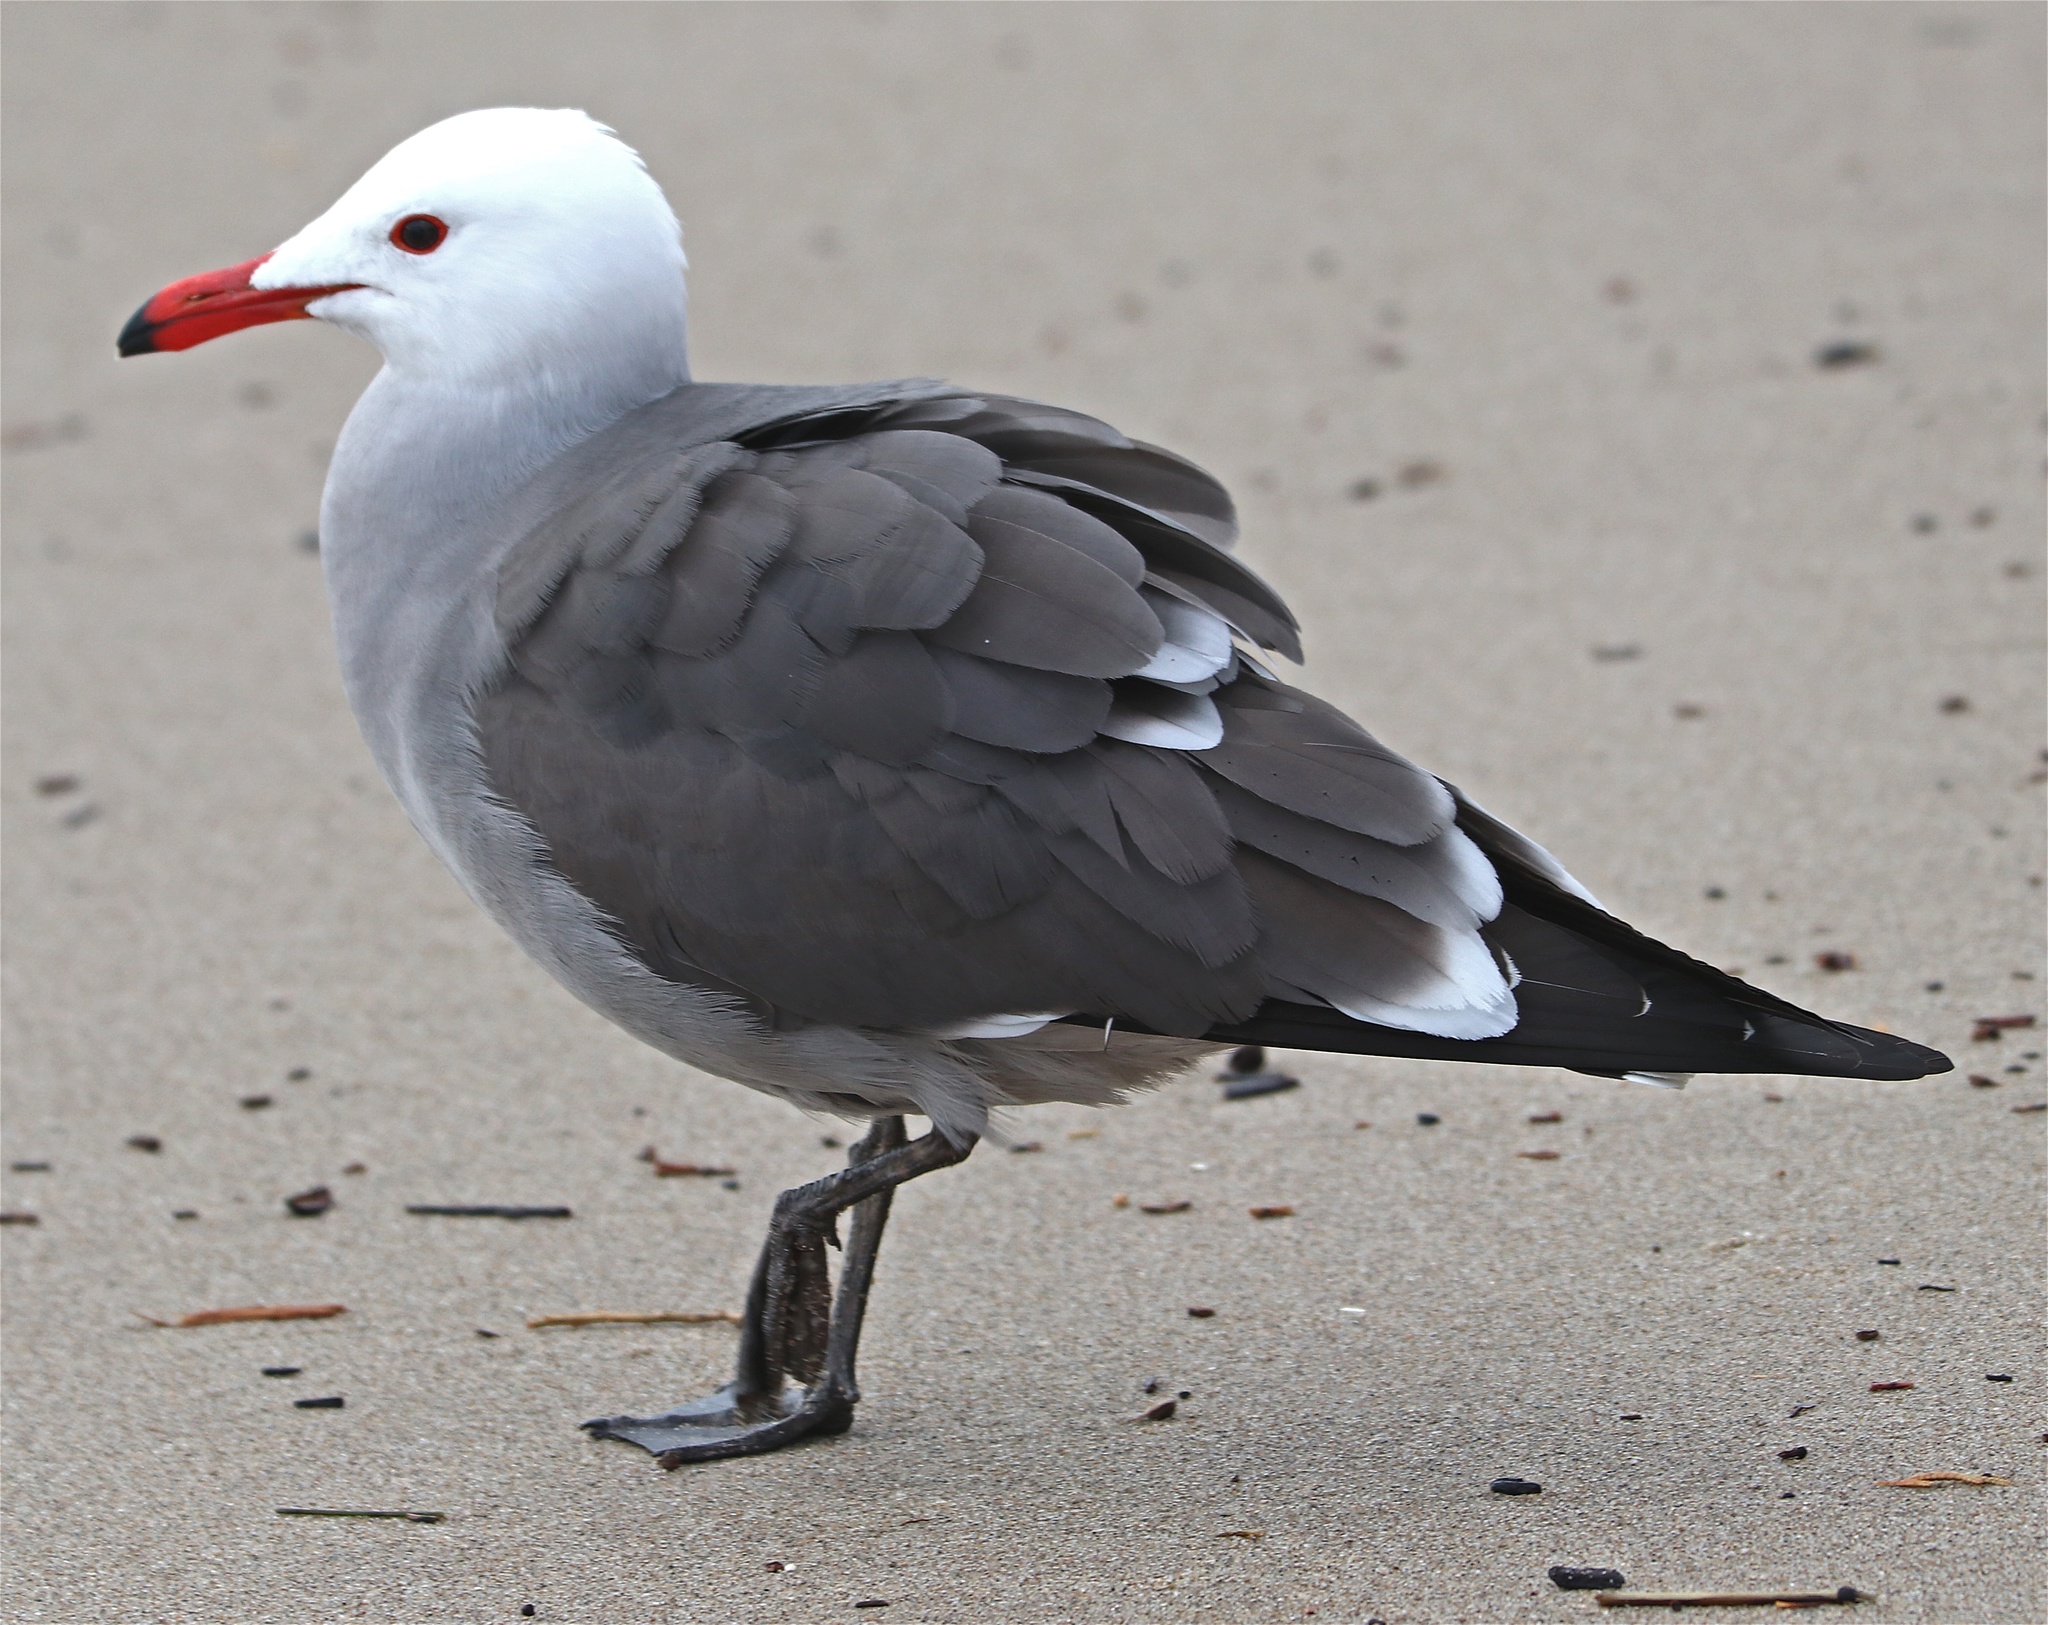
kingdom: Animalia
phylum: Chordata
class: Aves
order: Charadriiformes
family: Laridae
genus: Larus
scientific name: Larus heermanni
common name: Heermann's gull
